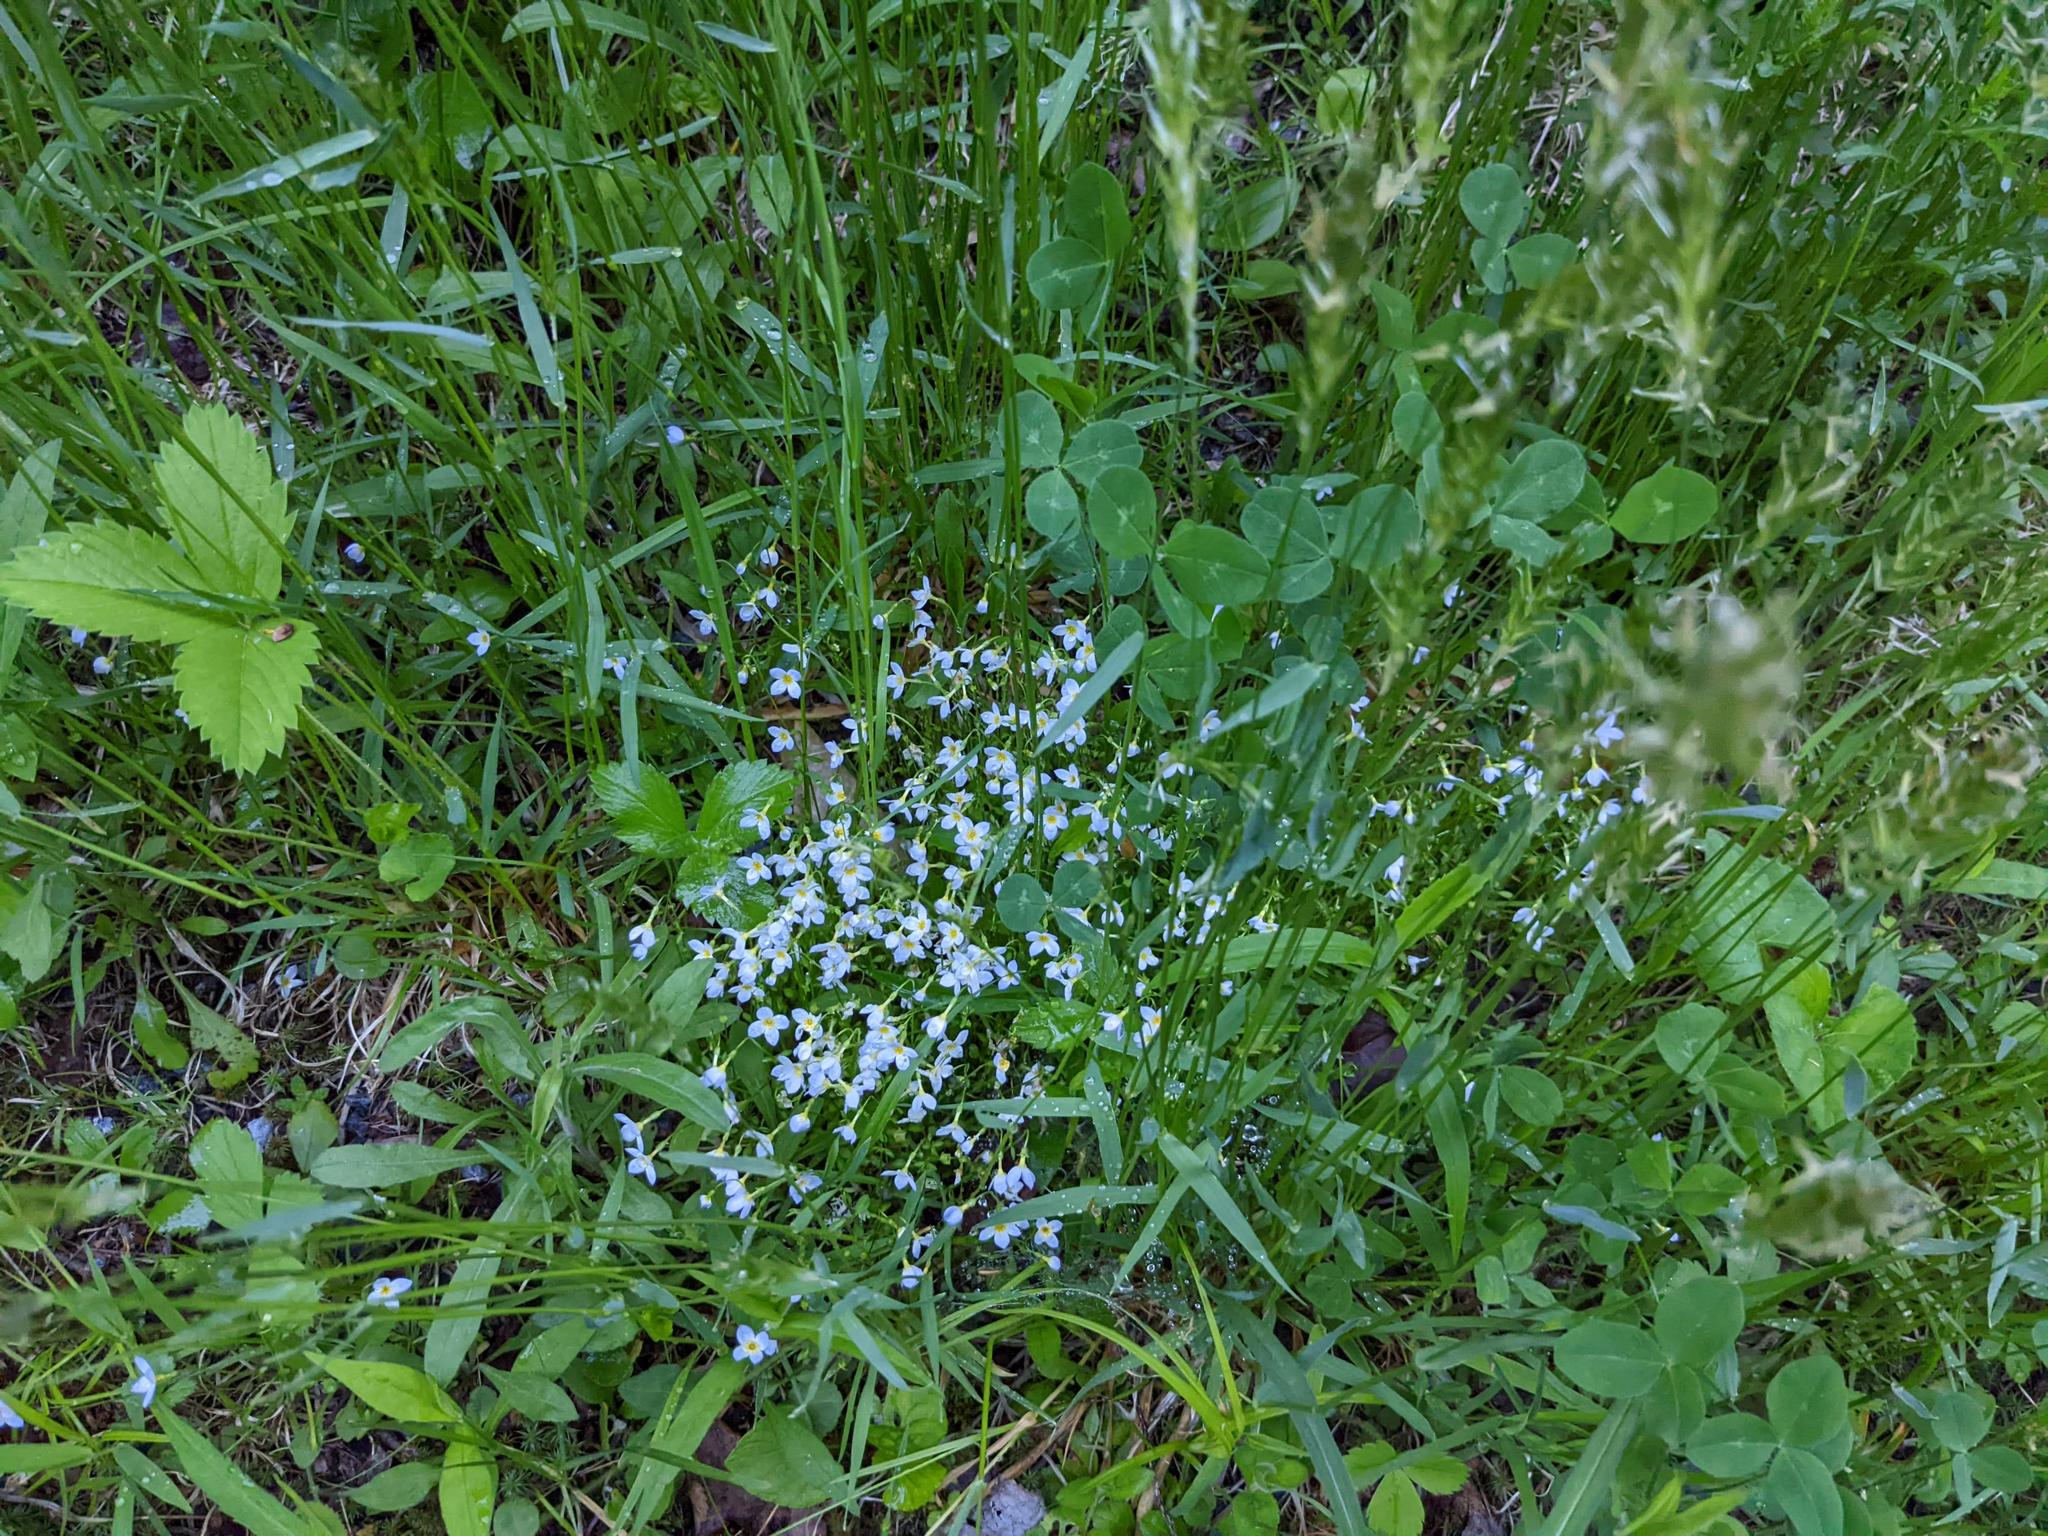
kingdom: Plantae
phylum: Tracheophyta
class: Magnoliopsida
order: Gentianales
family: Rubiaceae
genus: Houstonia
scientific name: Houstonia caerulea
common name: Bluets
